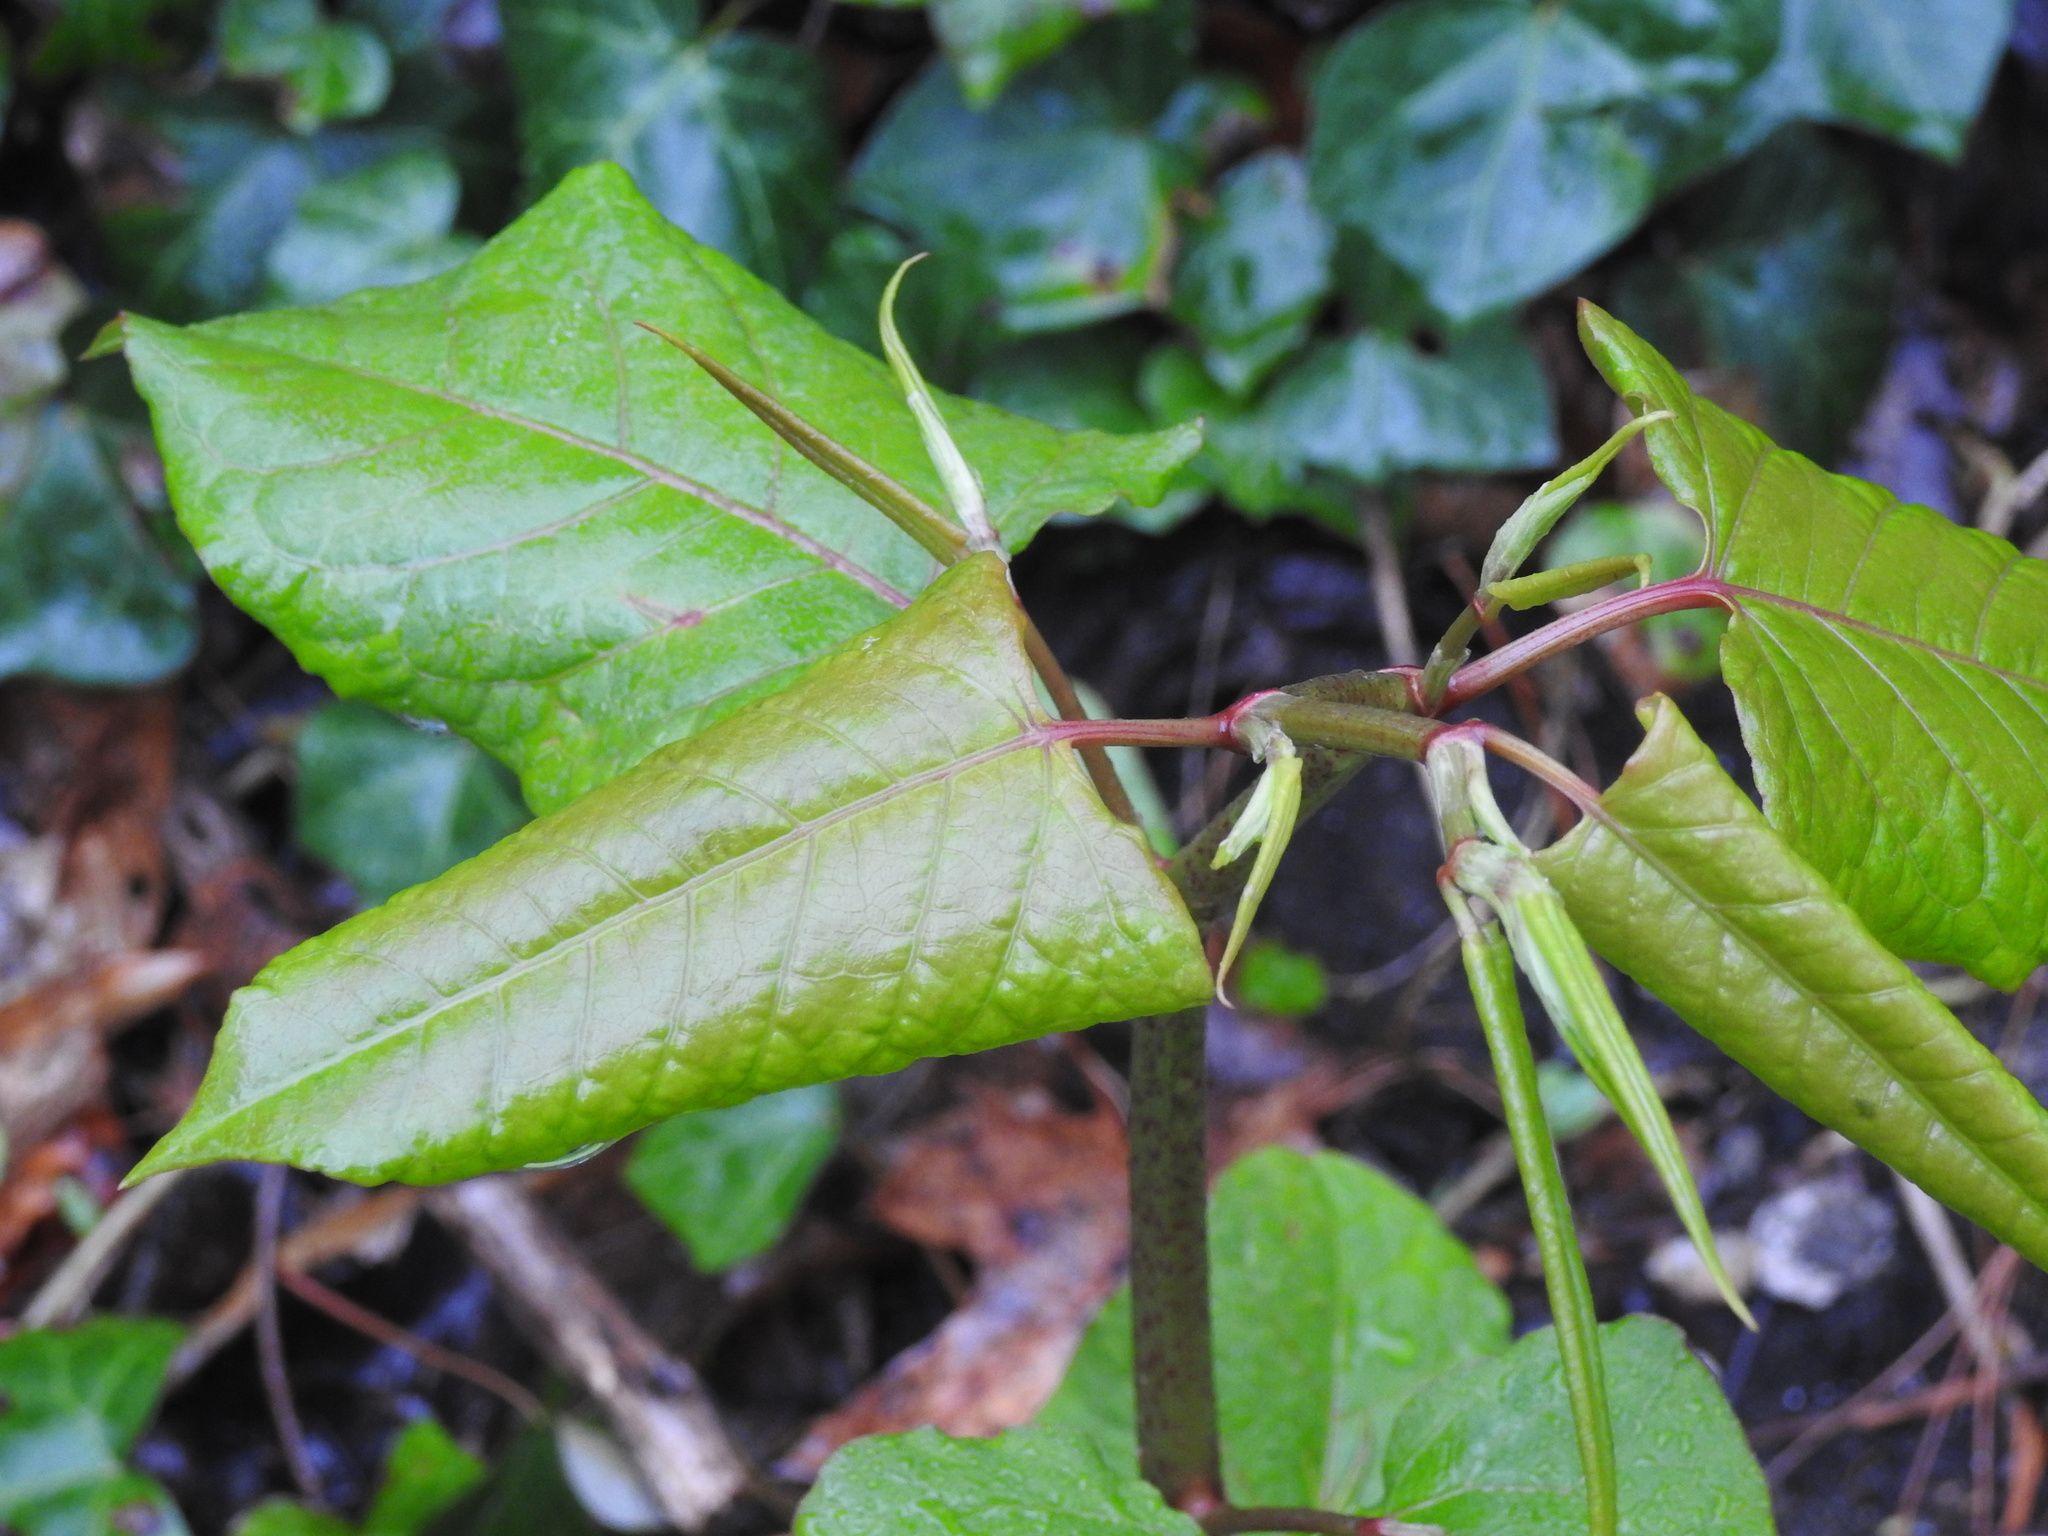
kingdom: Plantae
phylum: Tracheophyta
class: Magnoliopsida
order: Caryophyllales
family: Polygonaceae
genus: Reynoutria
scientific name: Reynoutria japonica
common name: Japanese knotweed
